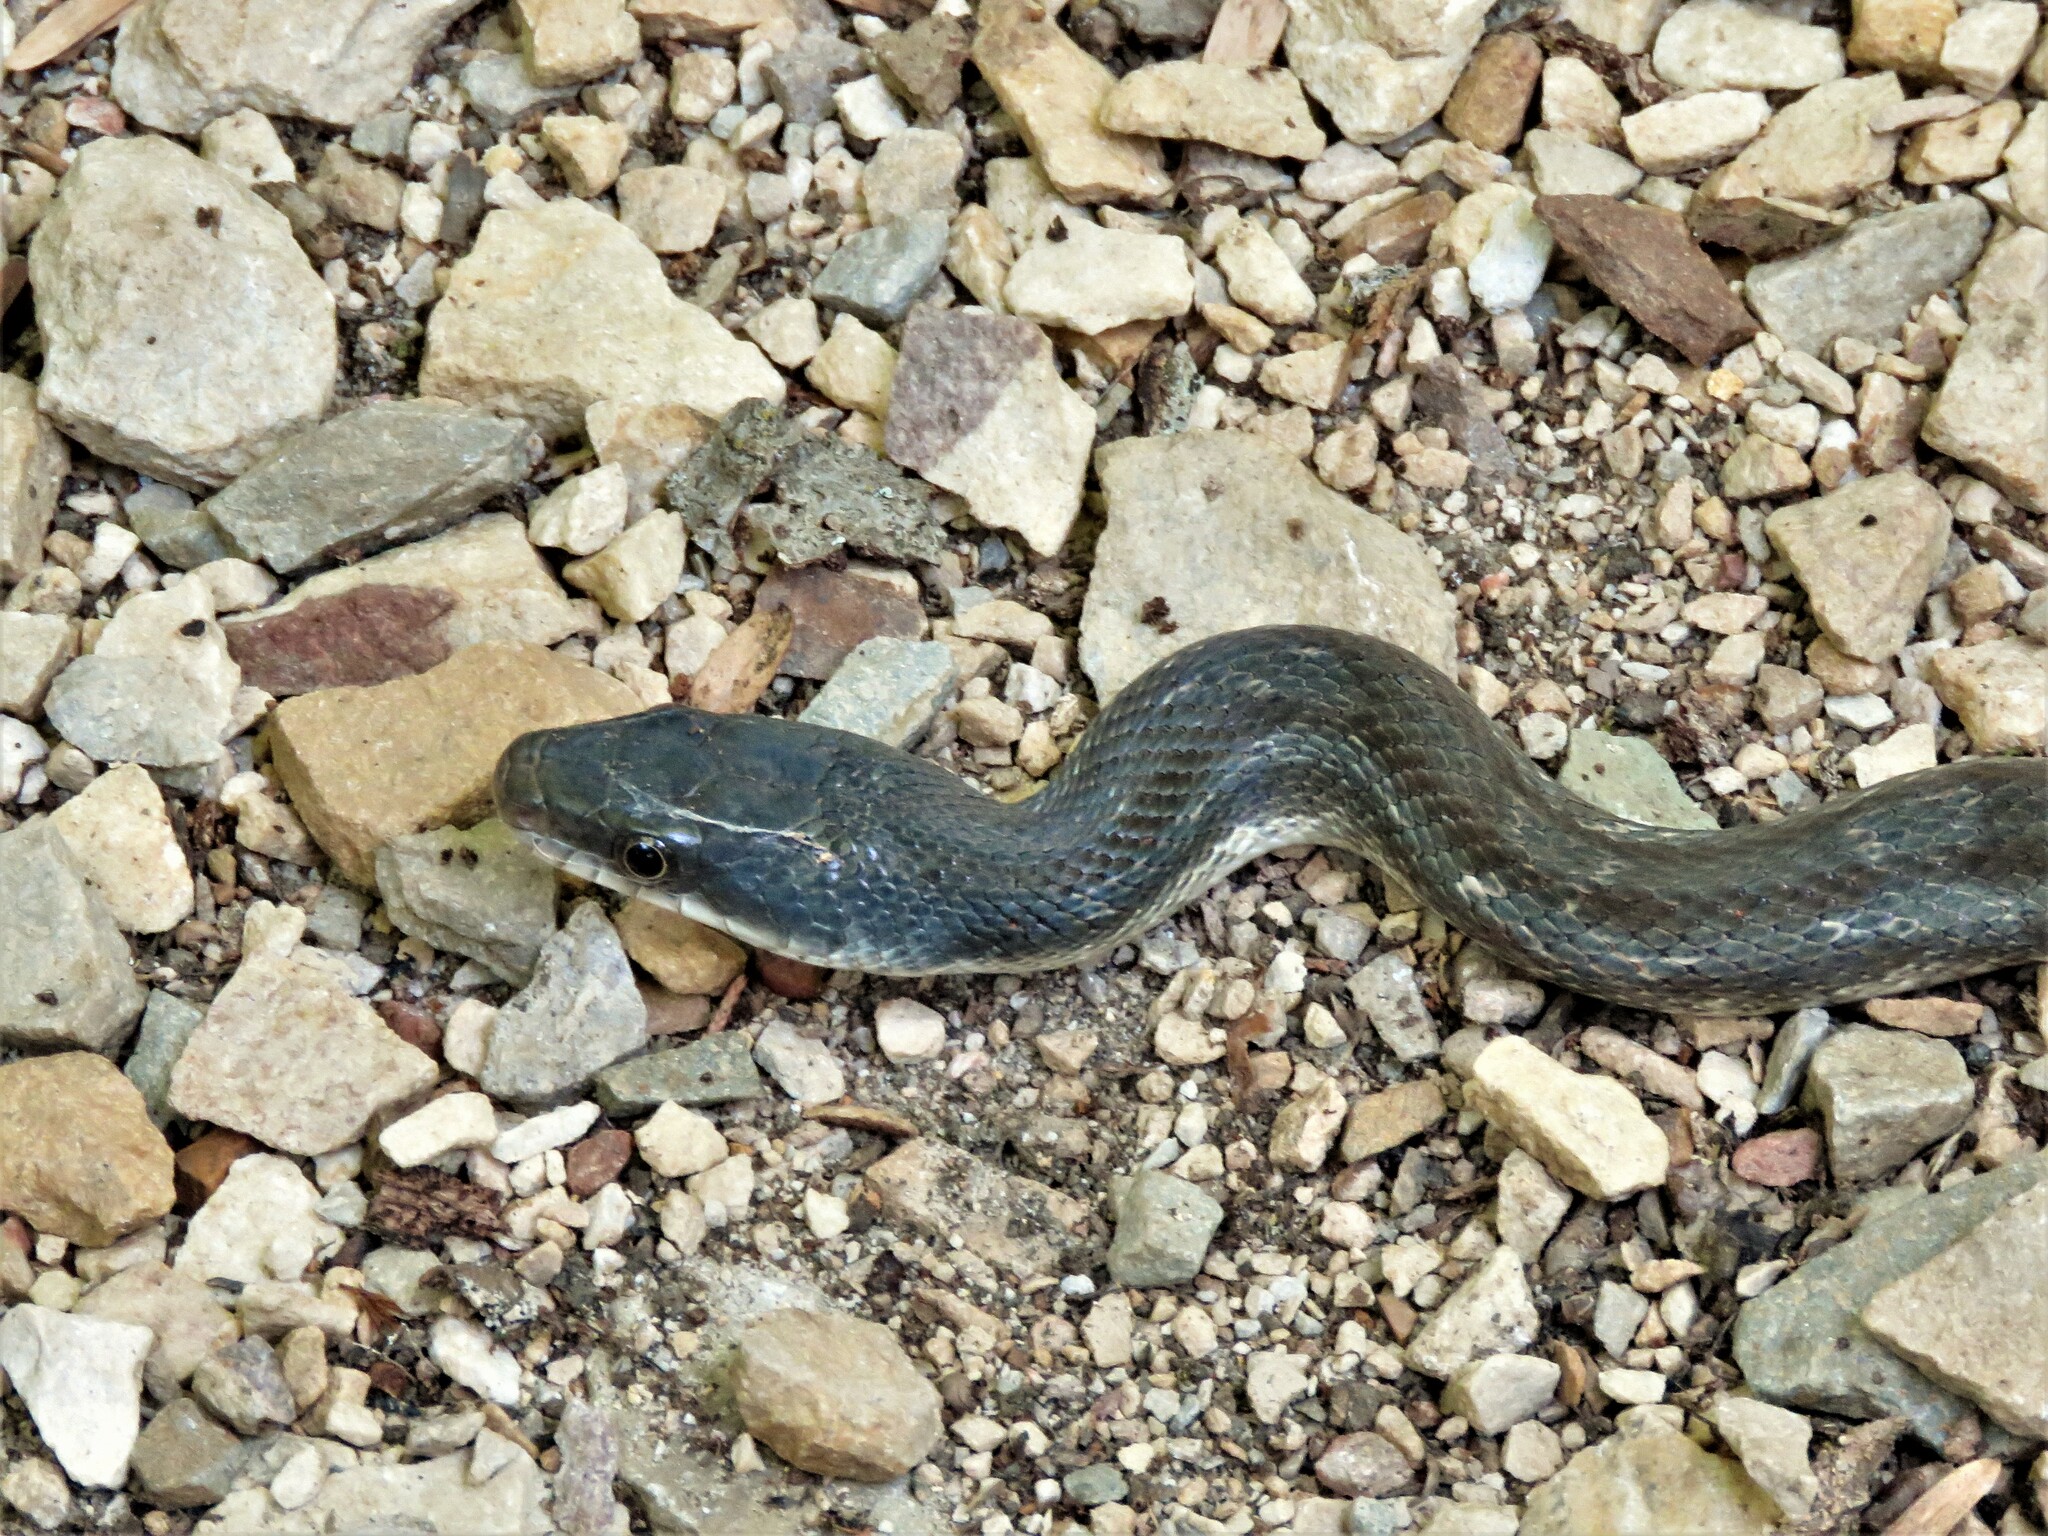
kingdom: Animalia
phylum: Chordata
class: Squamata
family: Colubridae
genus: Pantherophis
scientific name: Pantherophis obsoletus
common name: Black rat snake
